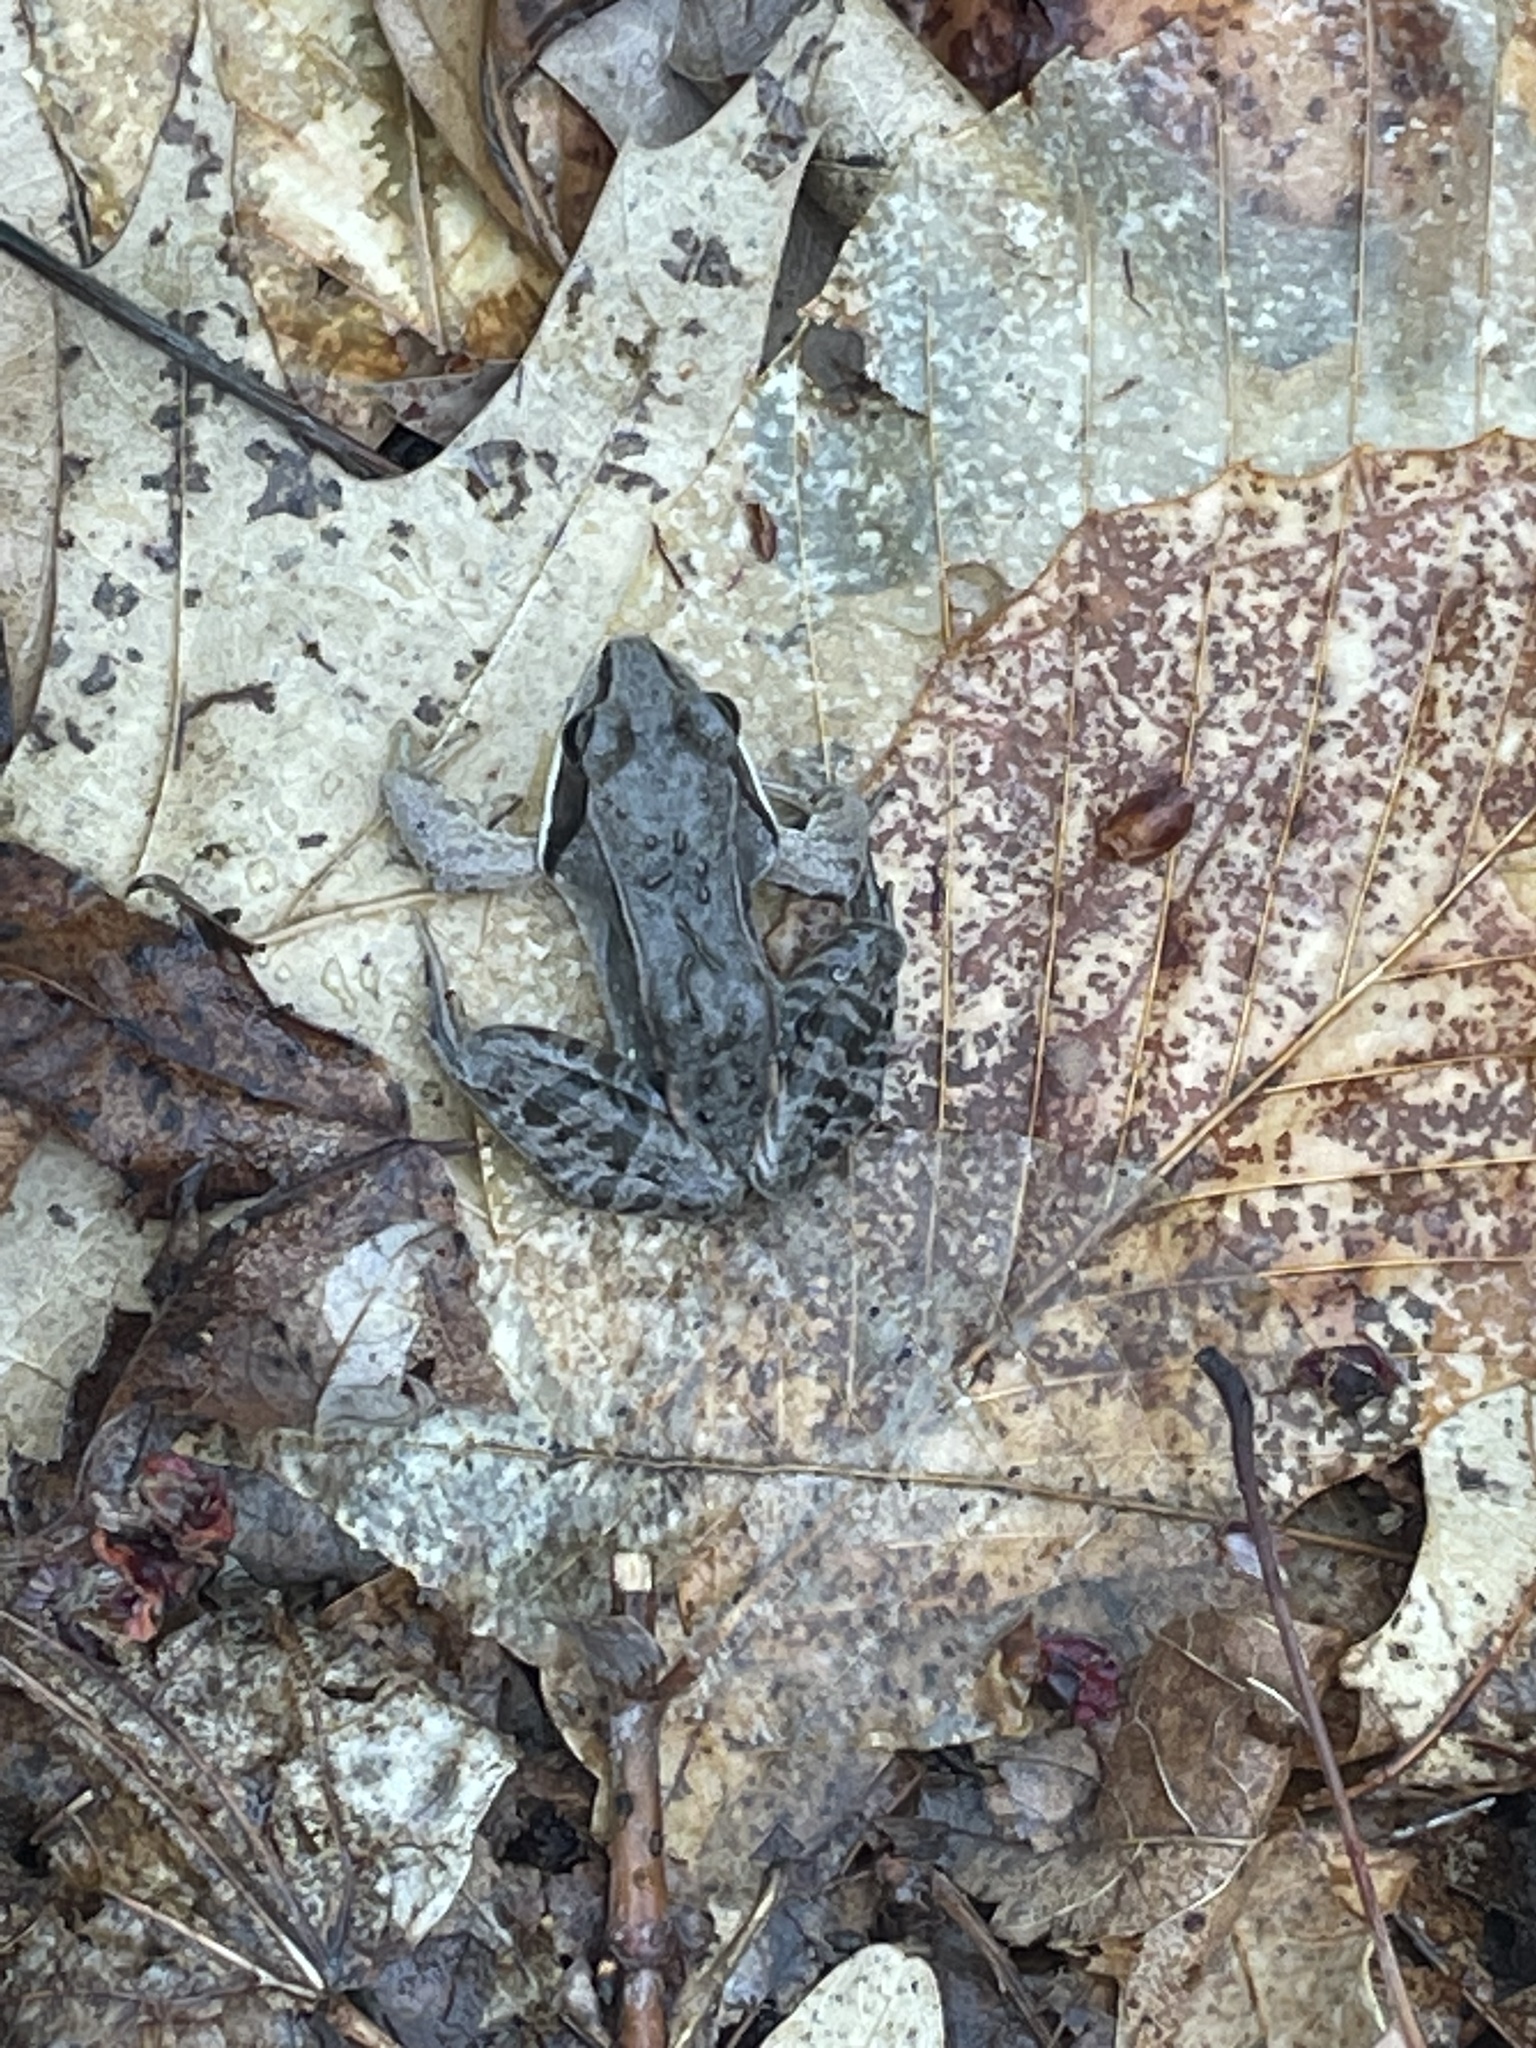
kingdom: Animalia
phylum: Chordata
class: Amphibia
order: Anura
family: Ranidae
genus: Lithobates
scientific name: Lithobates sylvaticus
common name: Wood frog
